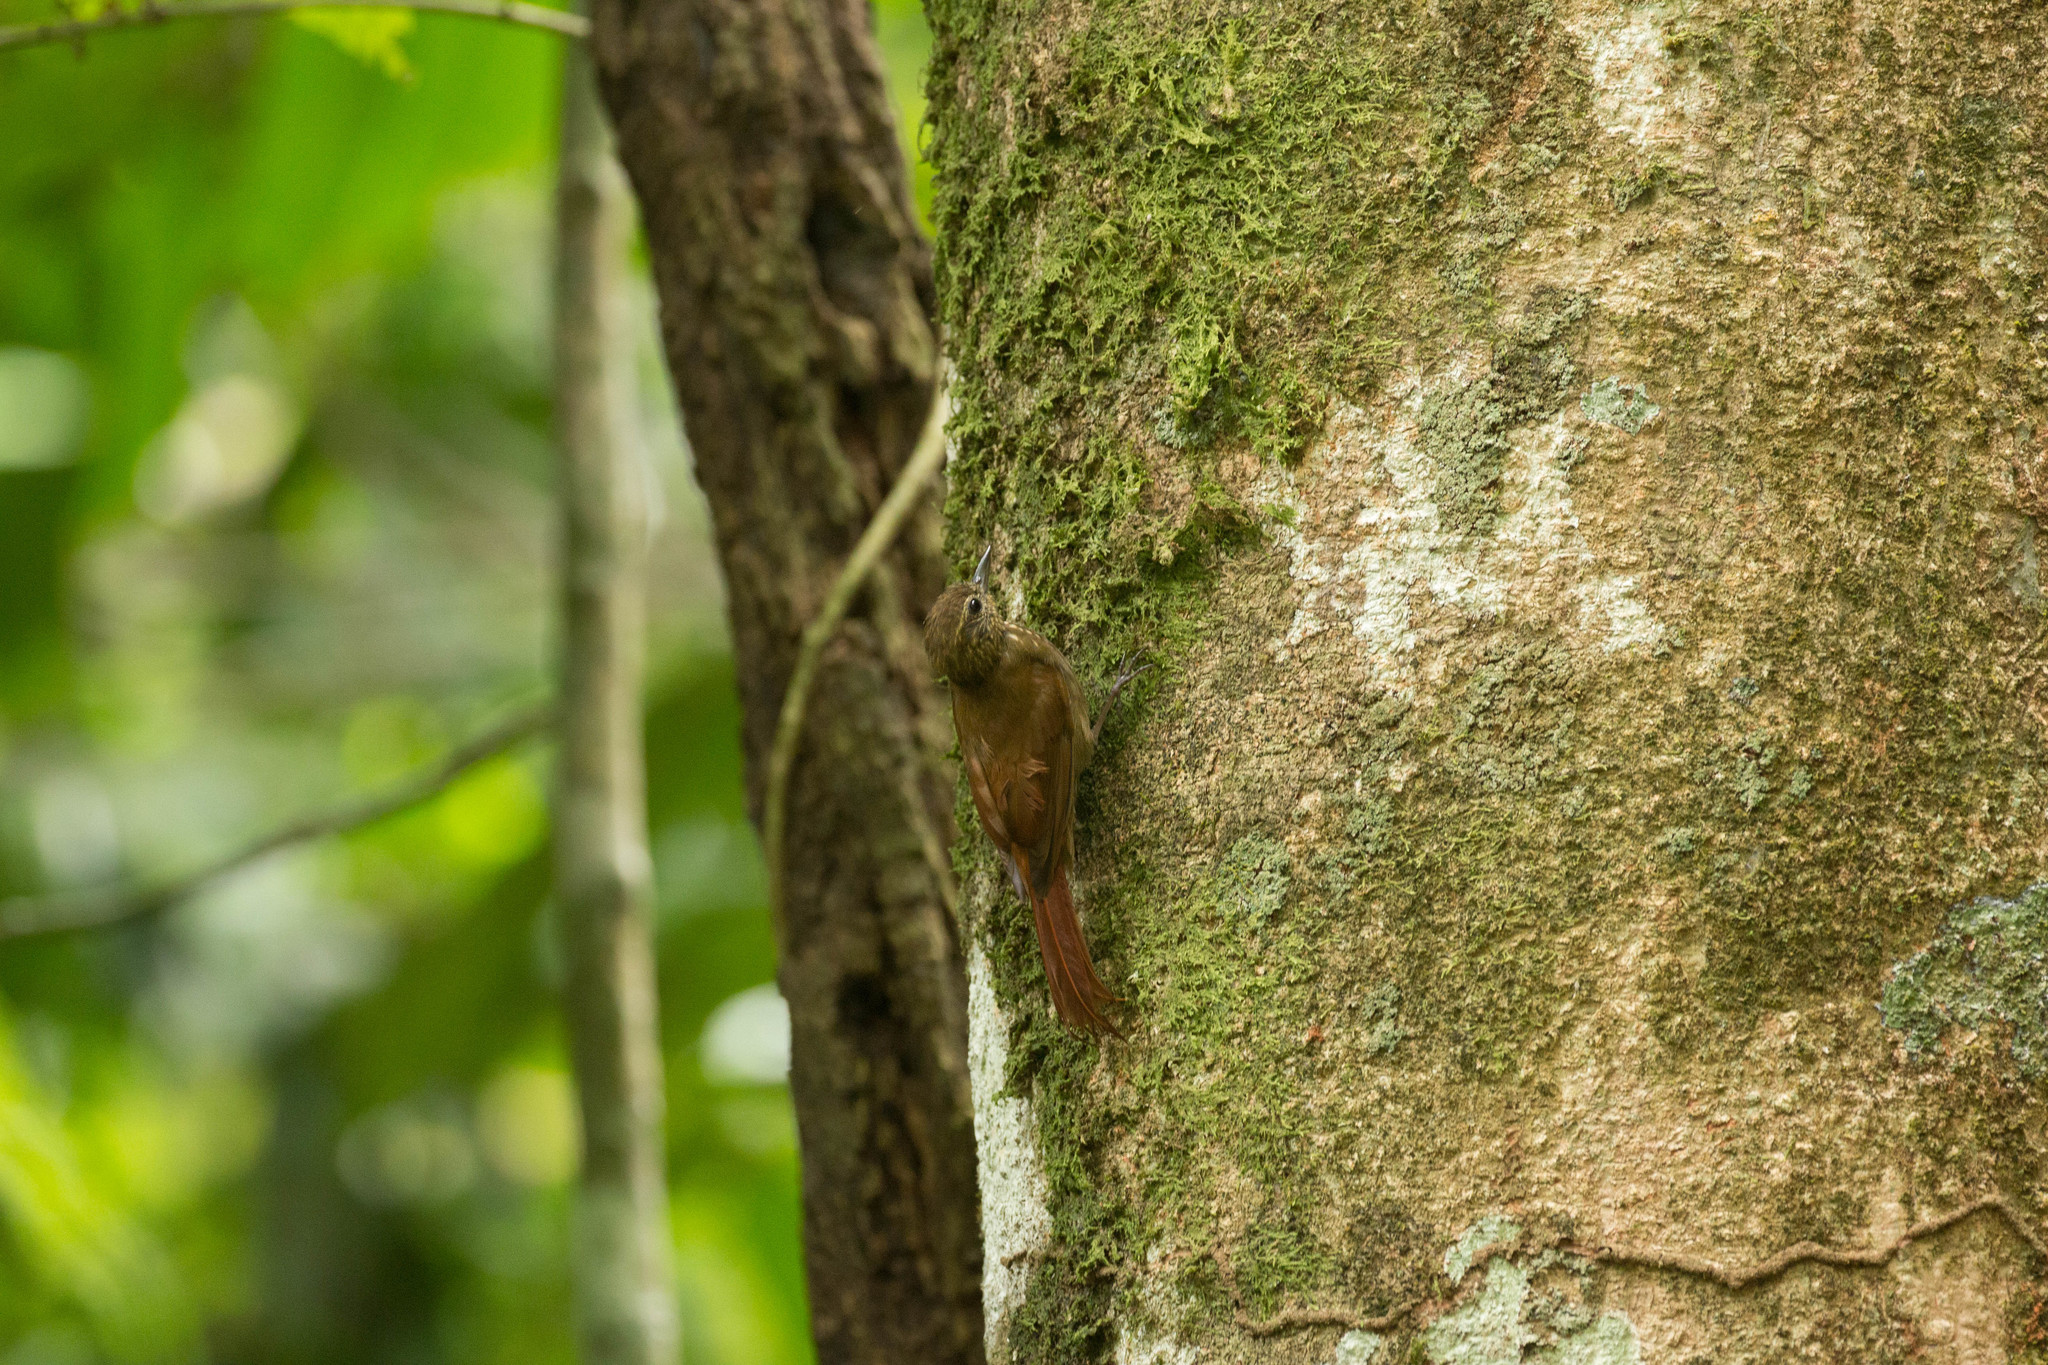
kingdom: Animalia
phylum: Chordata
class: Aves
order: Passeriformes
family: Furnariidae
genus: Glyphorynchus
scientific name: Glyphorynchus spirurus
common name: Wedge-billed woodcreeper
